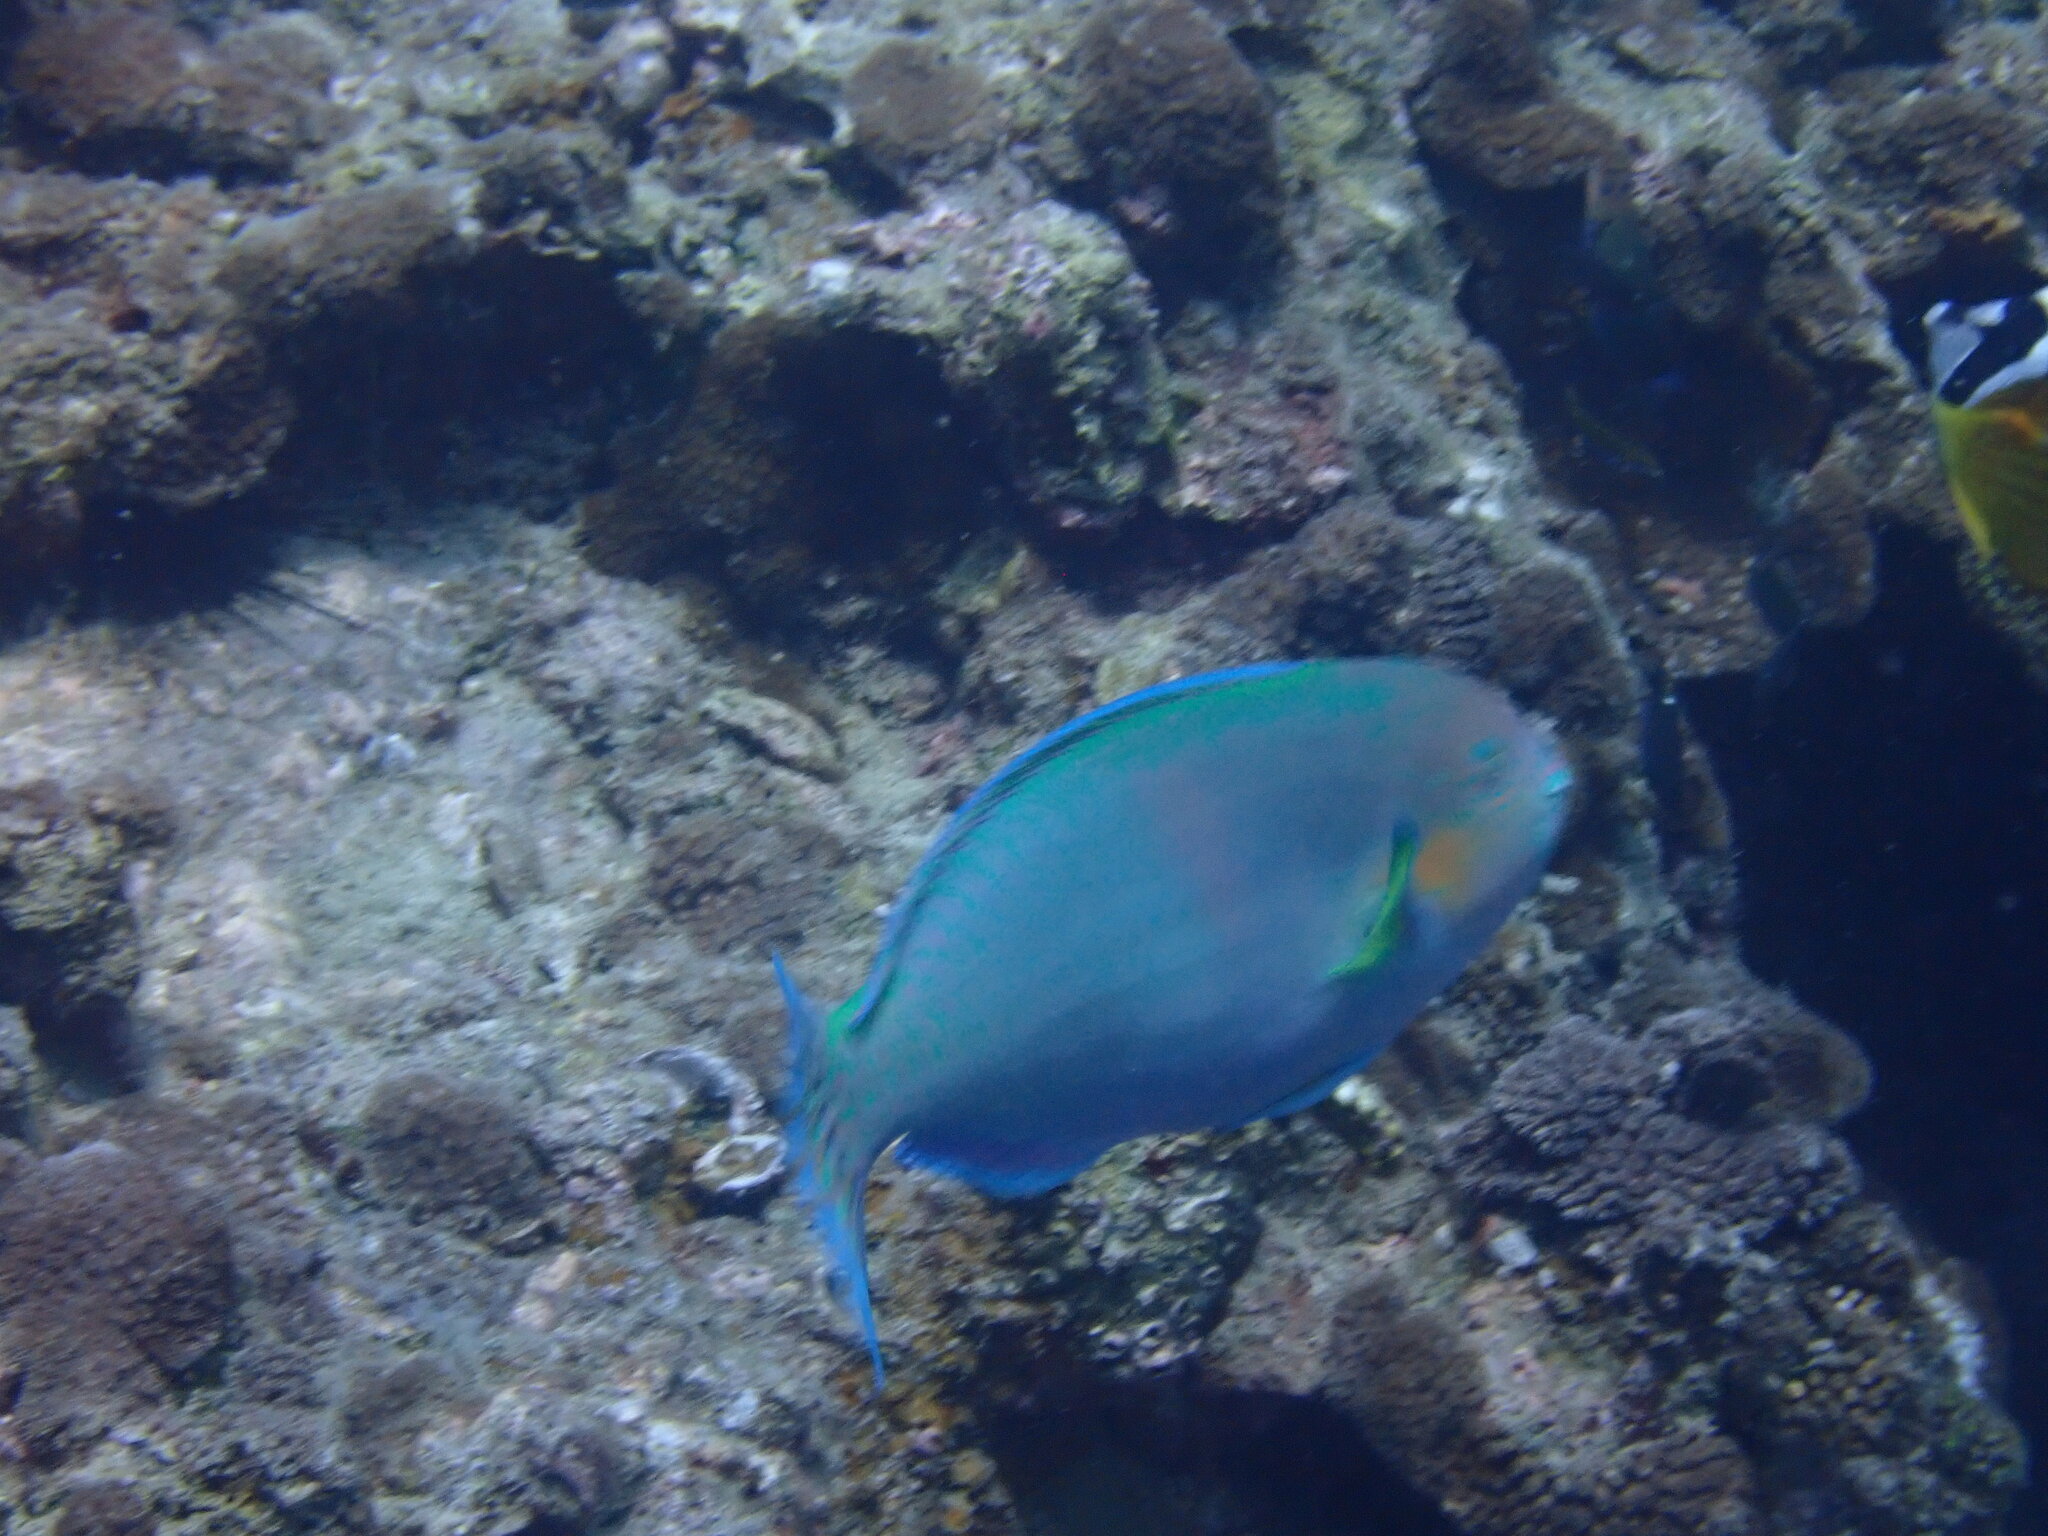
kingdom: Animalia
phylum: Chordata
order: Perciformes
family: Scaridae
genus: Scarus
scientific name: Scarus ghobban
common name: Blue-barred parrotfish
